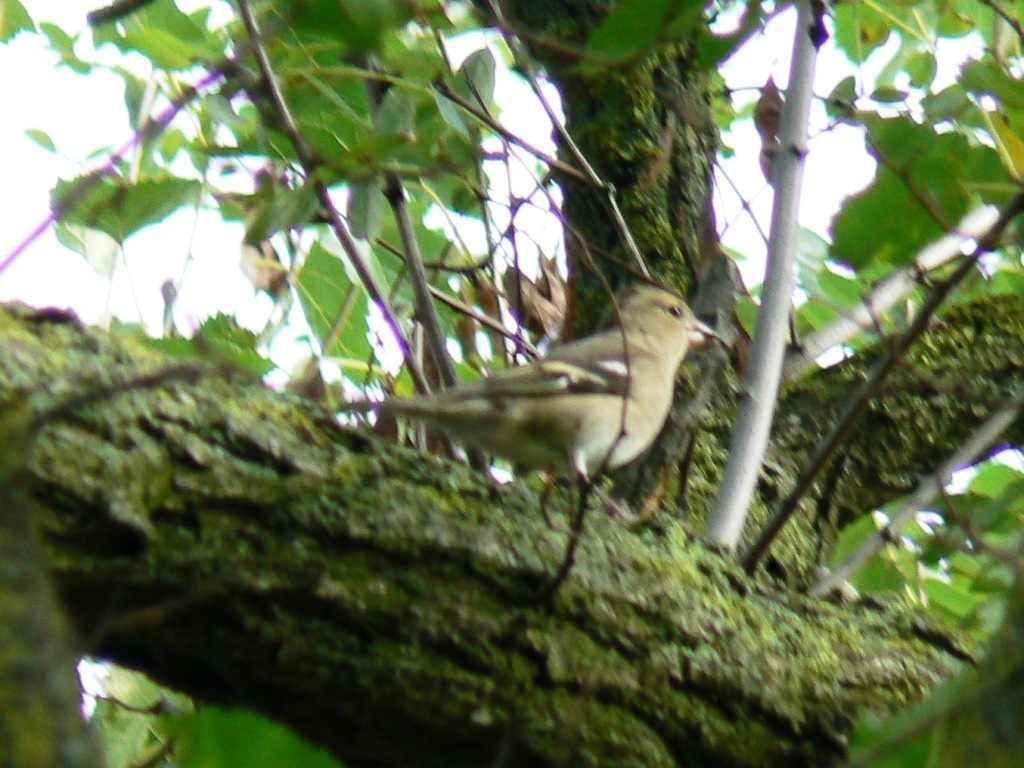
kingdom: Animalia
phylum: Chordata
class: Aves
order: Passeriformes
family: Fringillidae
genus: Fringilla
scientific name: Fringilla coelebs
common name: Common chaffinch
